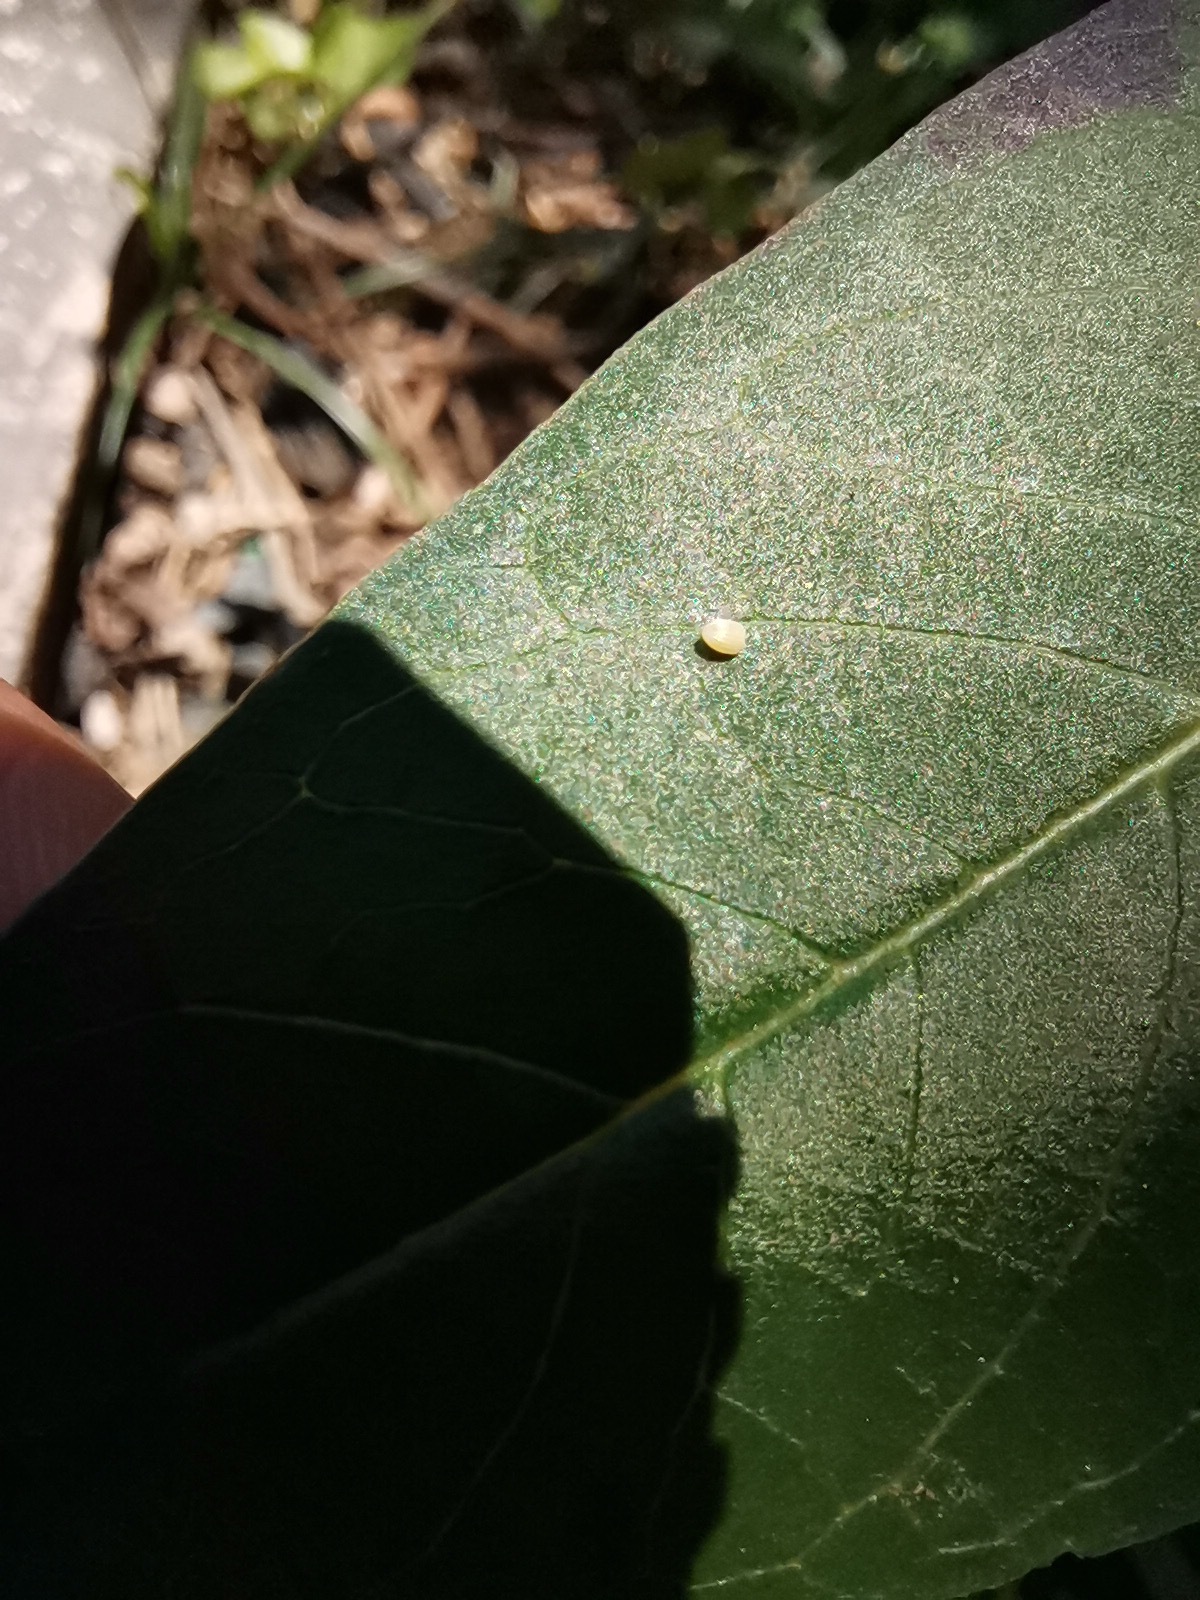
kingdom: Animalia
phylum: Arthropoda
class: Insecta
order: Lepidoptera
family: Nymphalidae
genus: Danaus
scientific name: Danaus plexippus
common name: Monarch
